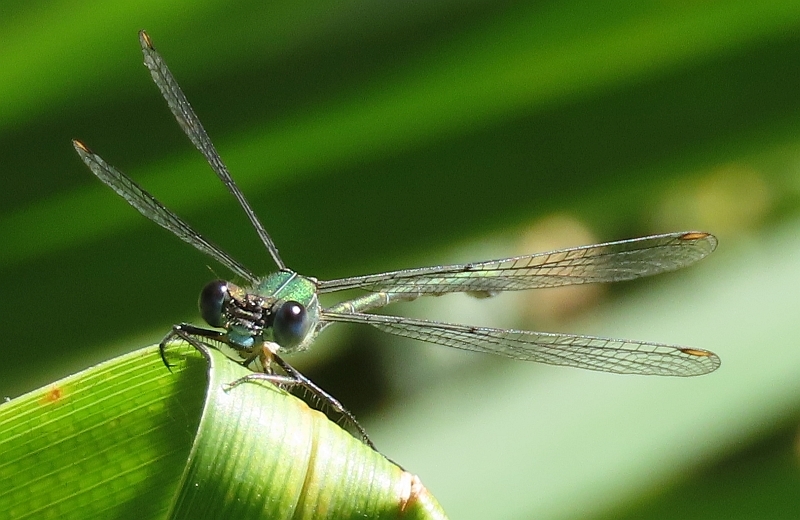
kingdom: Animalia
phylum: Arthropoda
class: Insecta
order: Odonata
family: Lestidae
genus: Chalcolestes
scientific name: Chalcolestes viridis
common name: Green emerald damselfly
